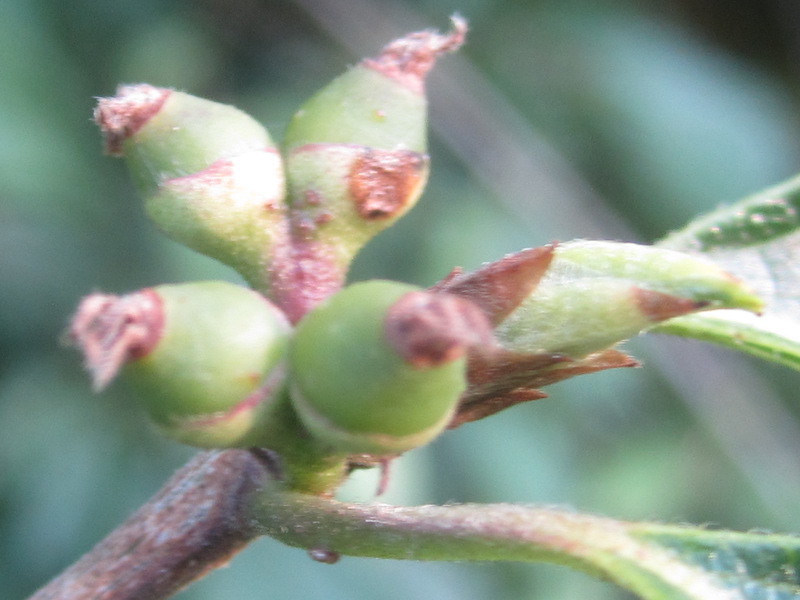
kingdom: Plantae
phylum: Tracheophyta
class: Magnoliopsida
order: Dipsacales
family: Caprifoliaceae
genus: Lonicera
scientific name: Lonicera maackii
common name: Amur honeysuckle
